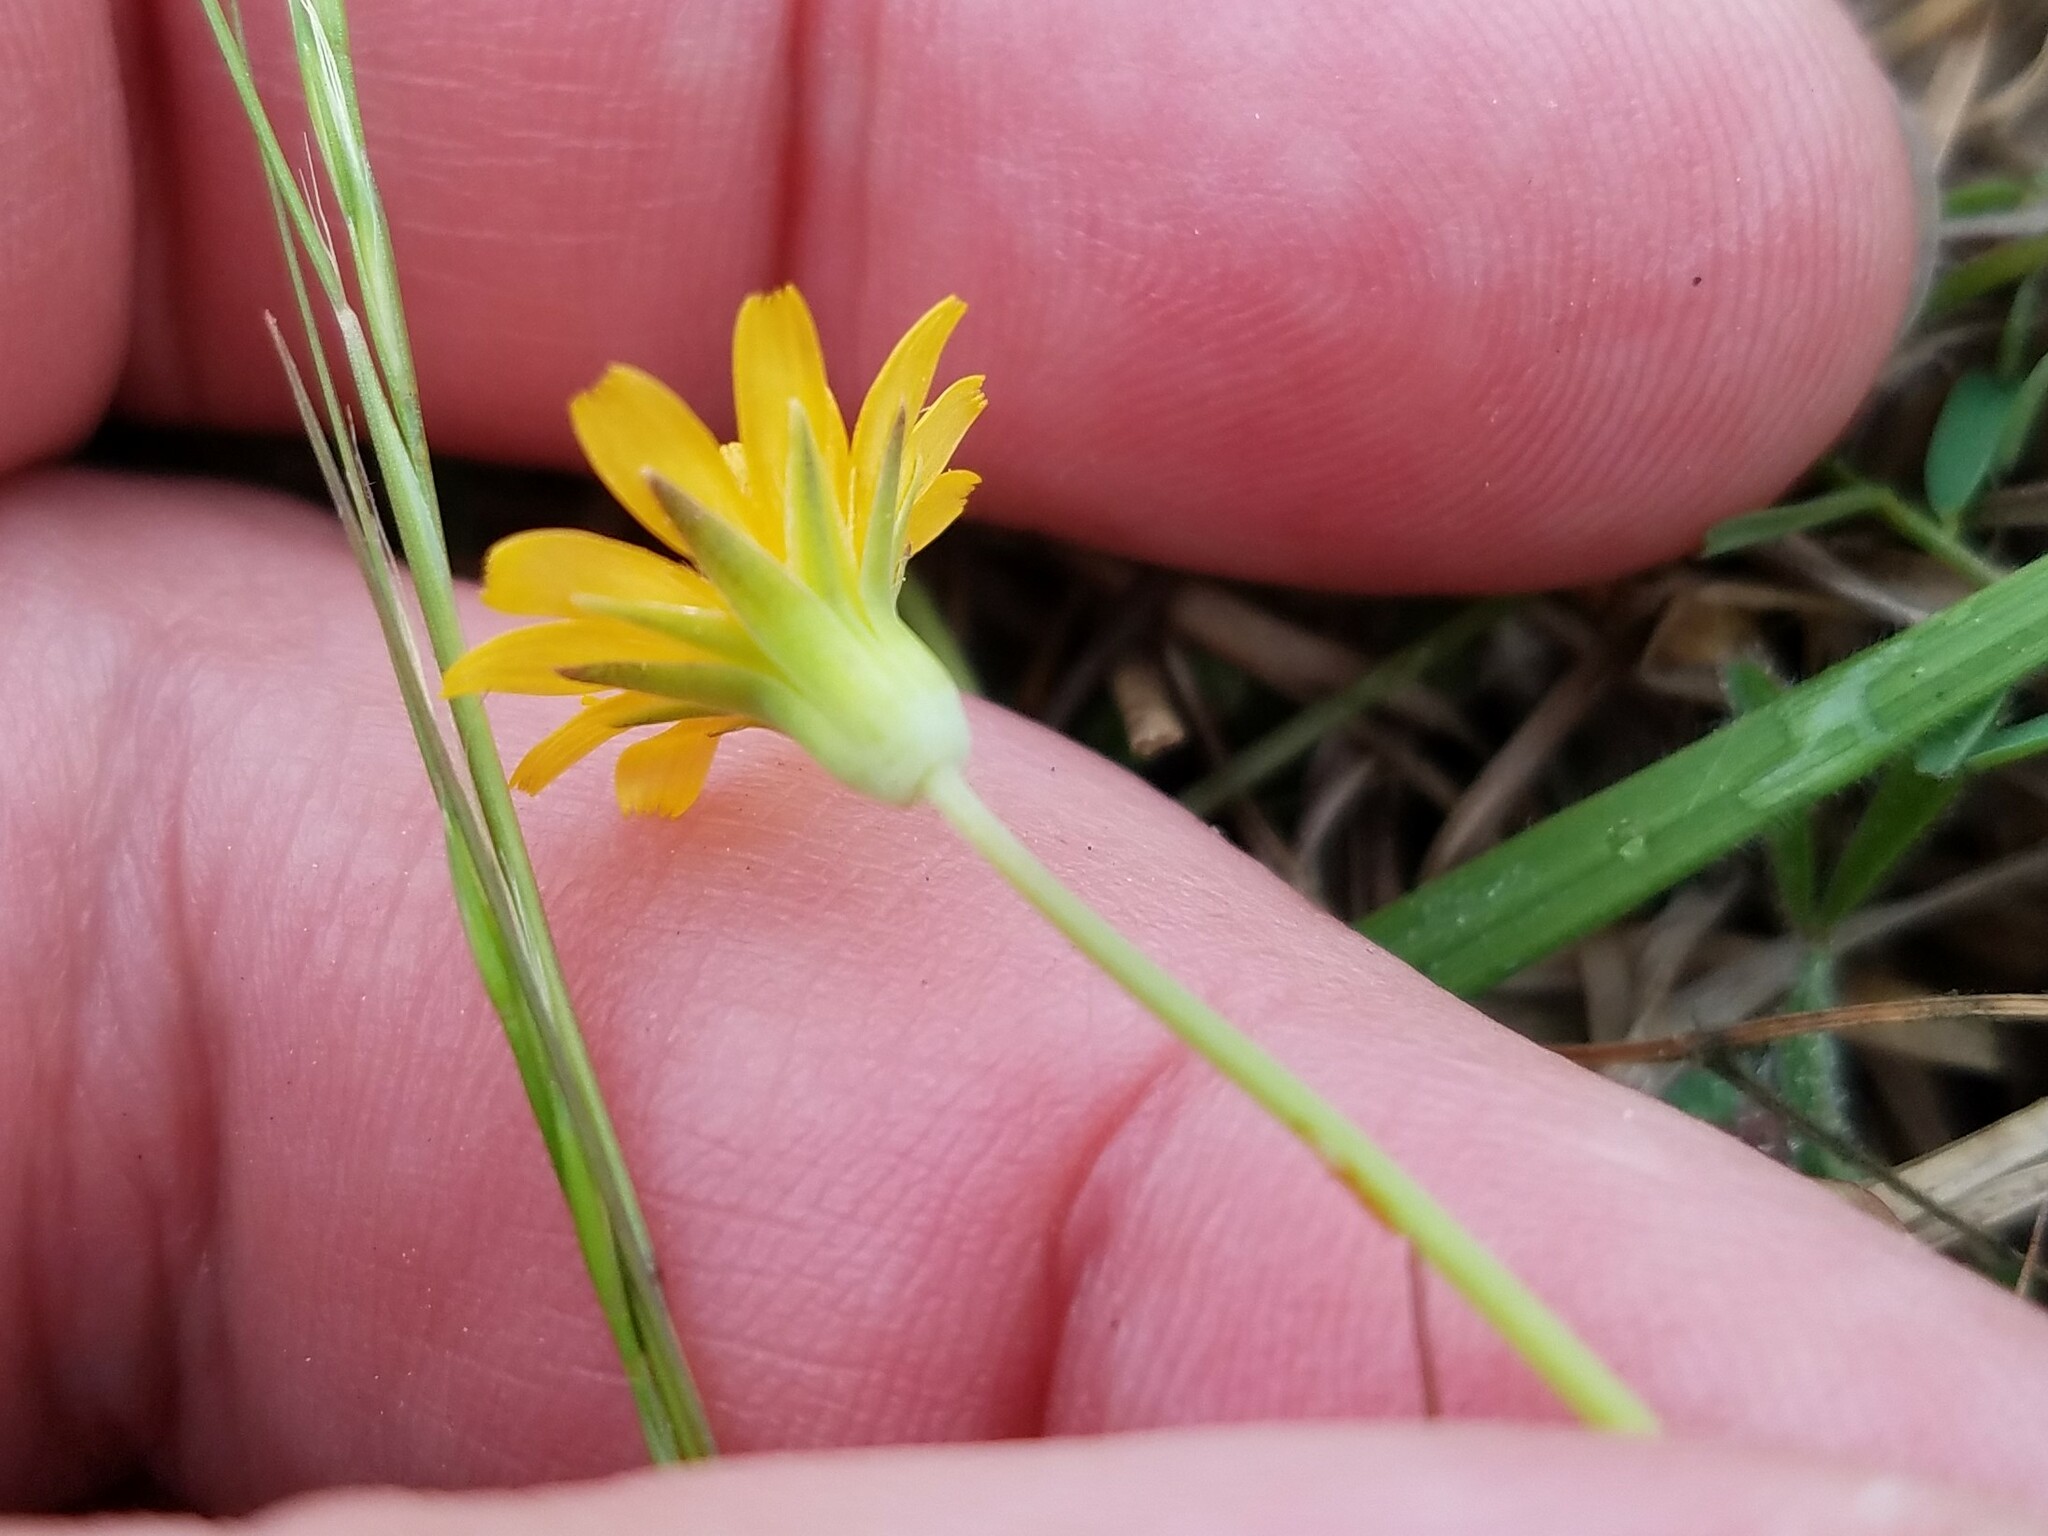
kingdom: Plantae
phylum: Tracheophyta
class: Magnoliopsida
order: Asterales
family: Asteraceae
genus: Krigia
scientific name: Krigia virginica
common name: Virginia dwarf-dandelion
